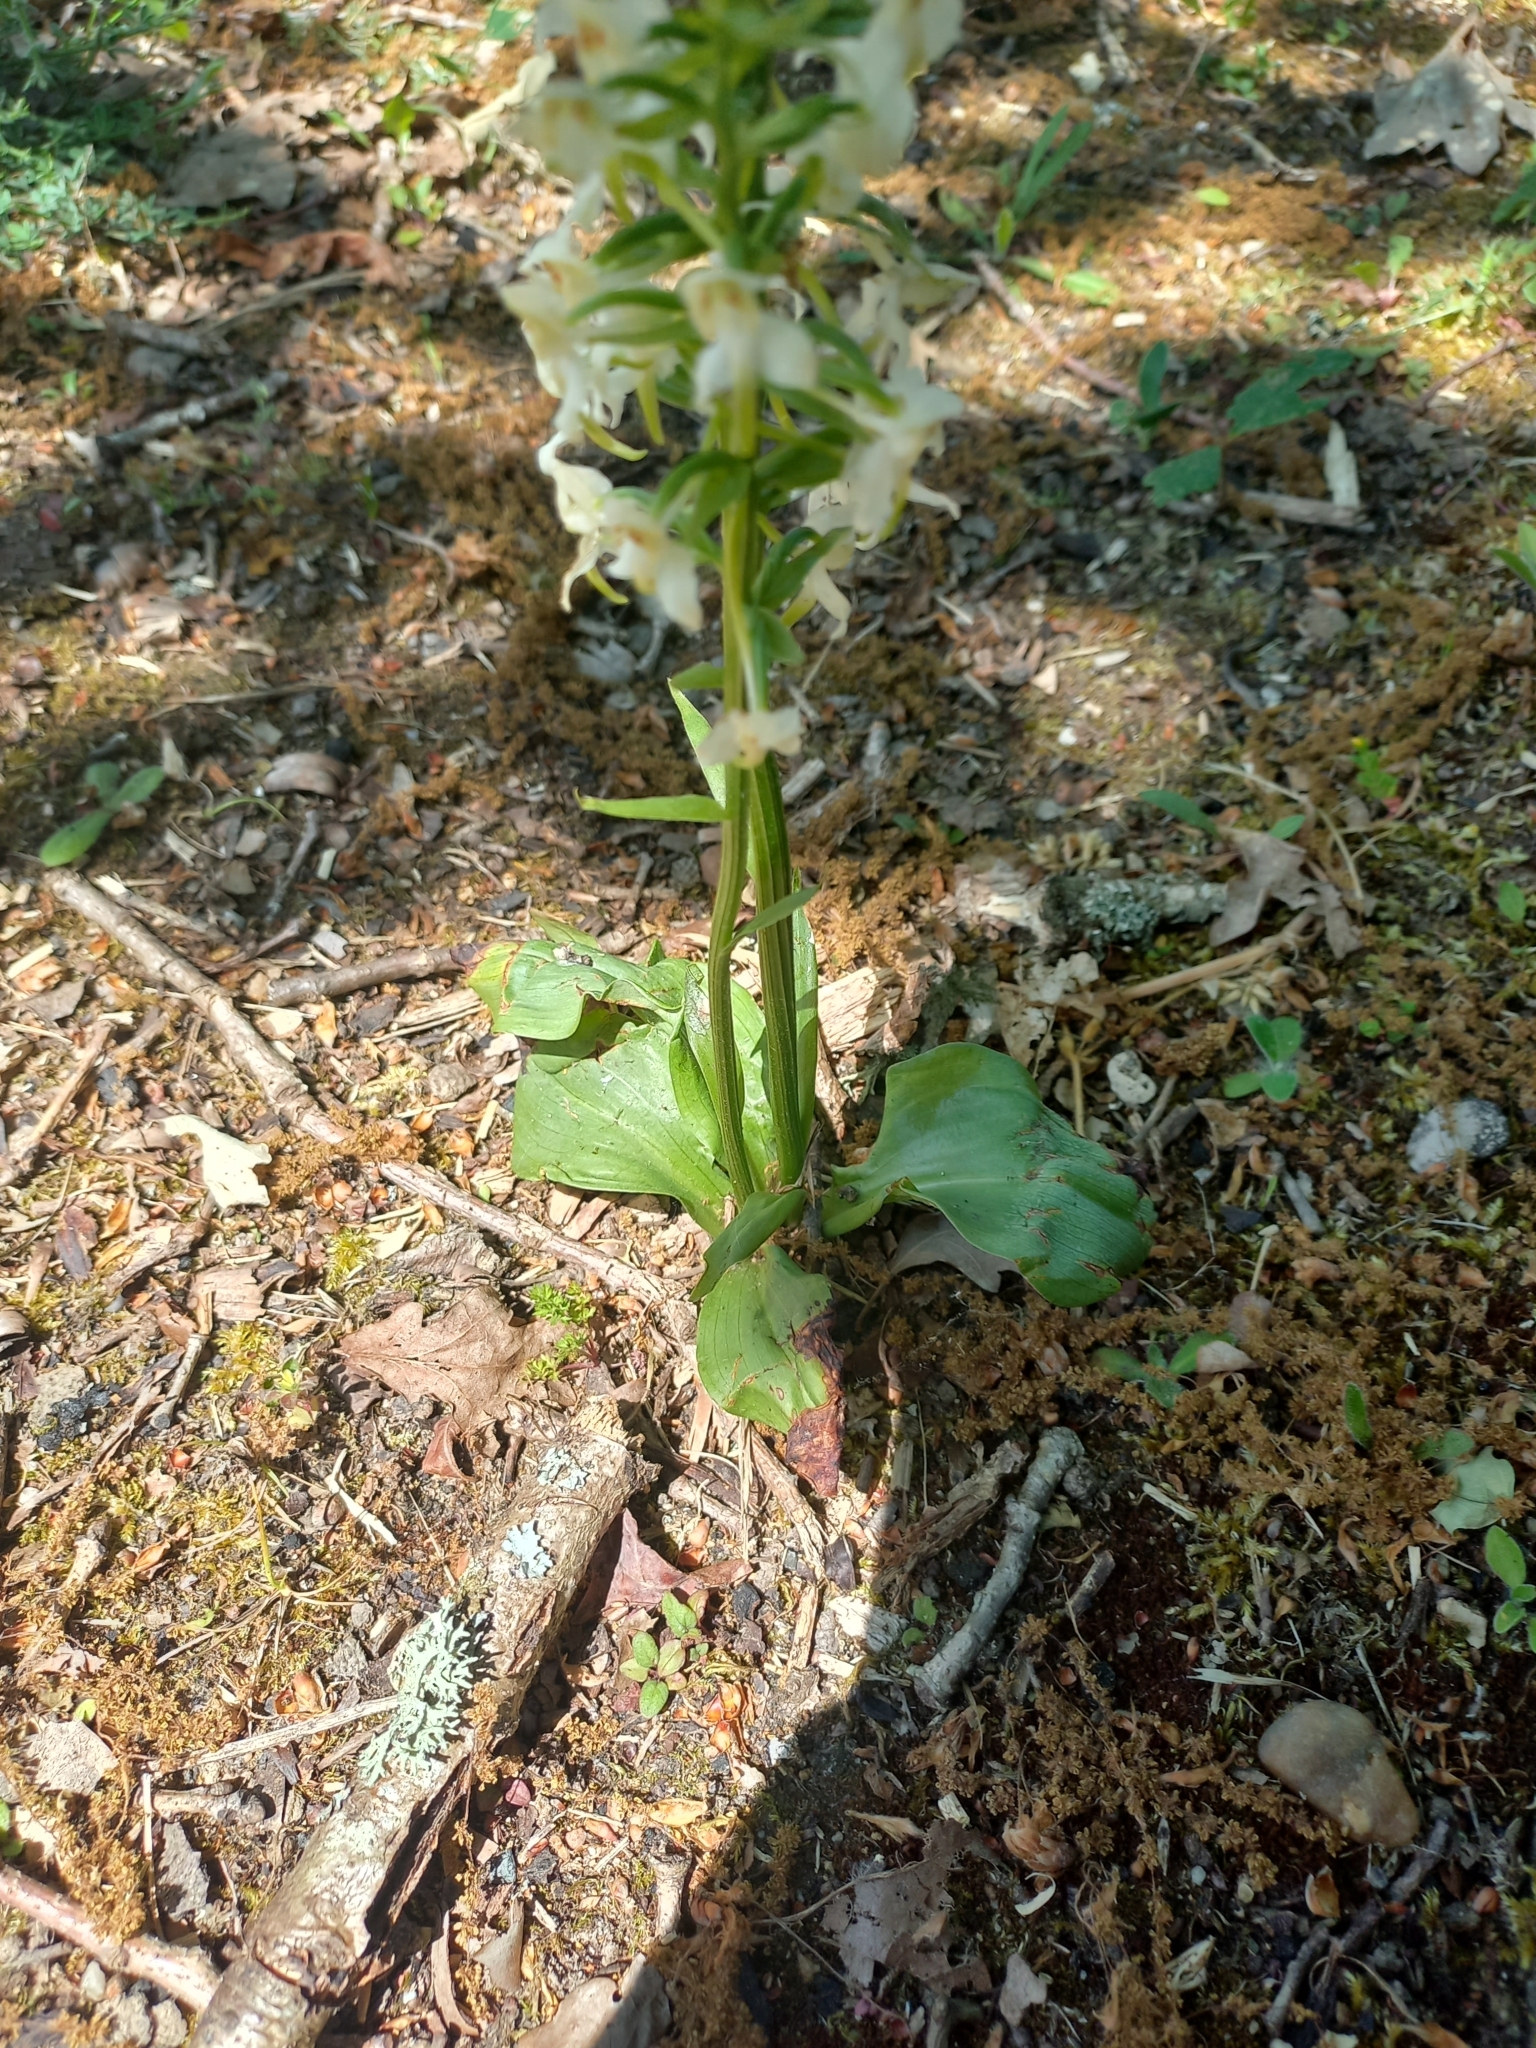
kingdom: Plantae
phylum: Tracheophyta
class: Liliopsida
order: Asparagales
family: Orchidaceae
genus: Platanthera
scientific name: Platanthera chlorantha
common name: Greater butterfly-orchid
